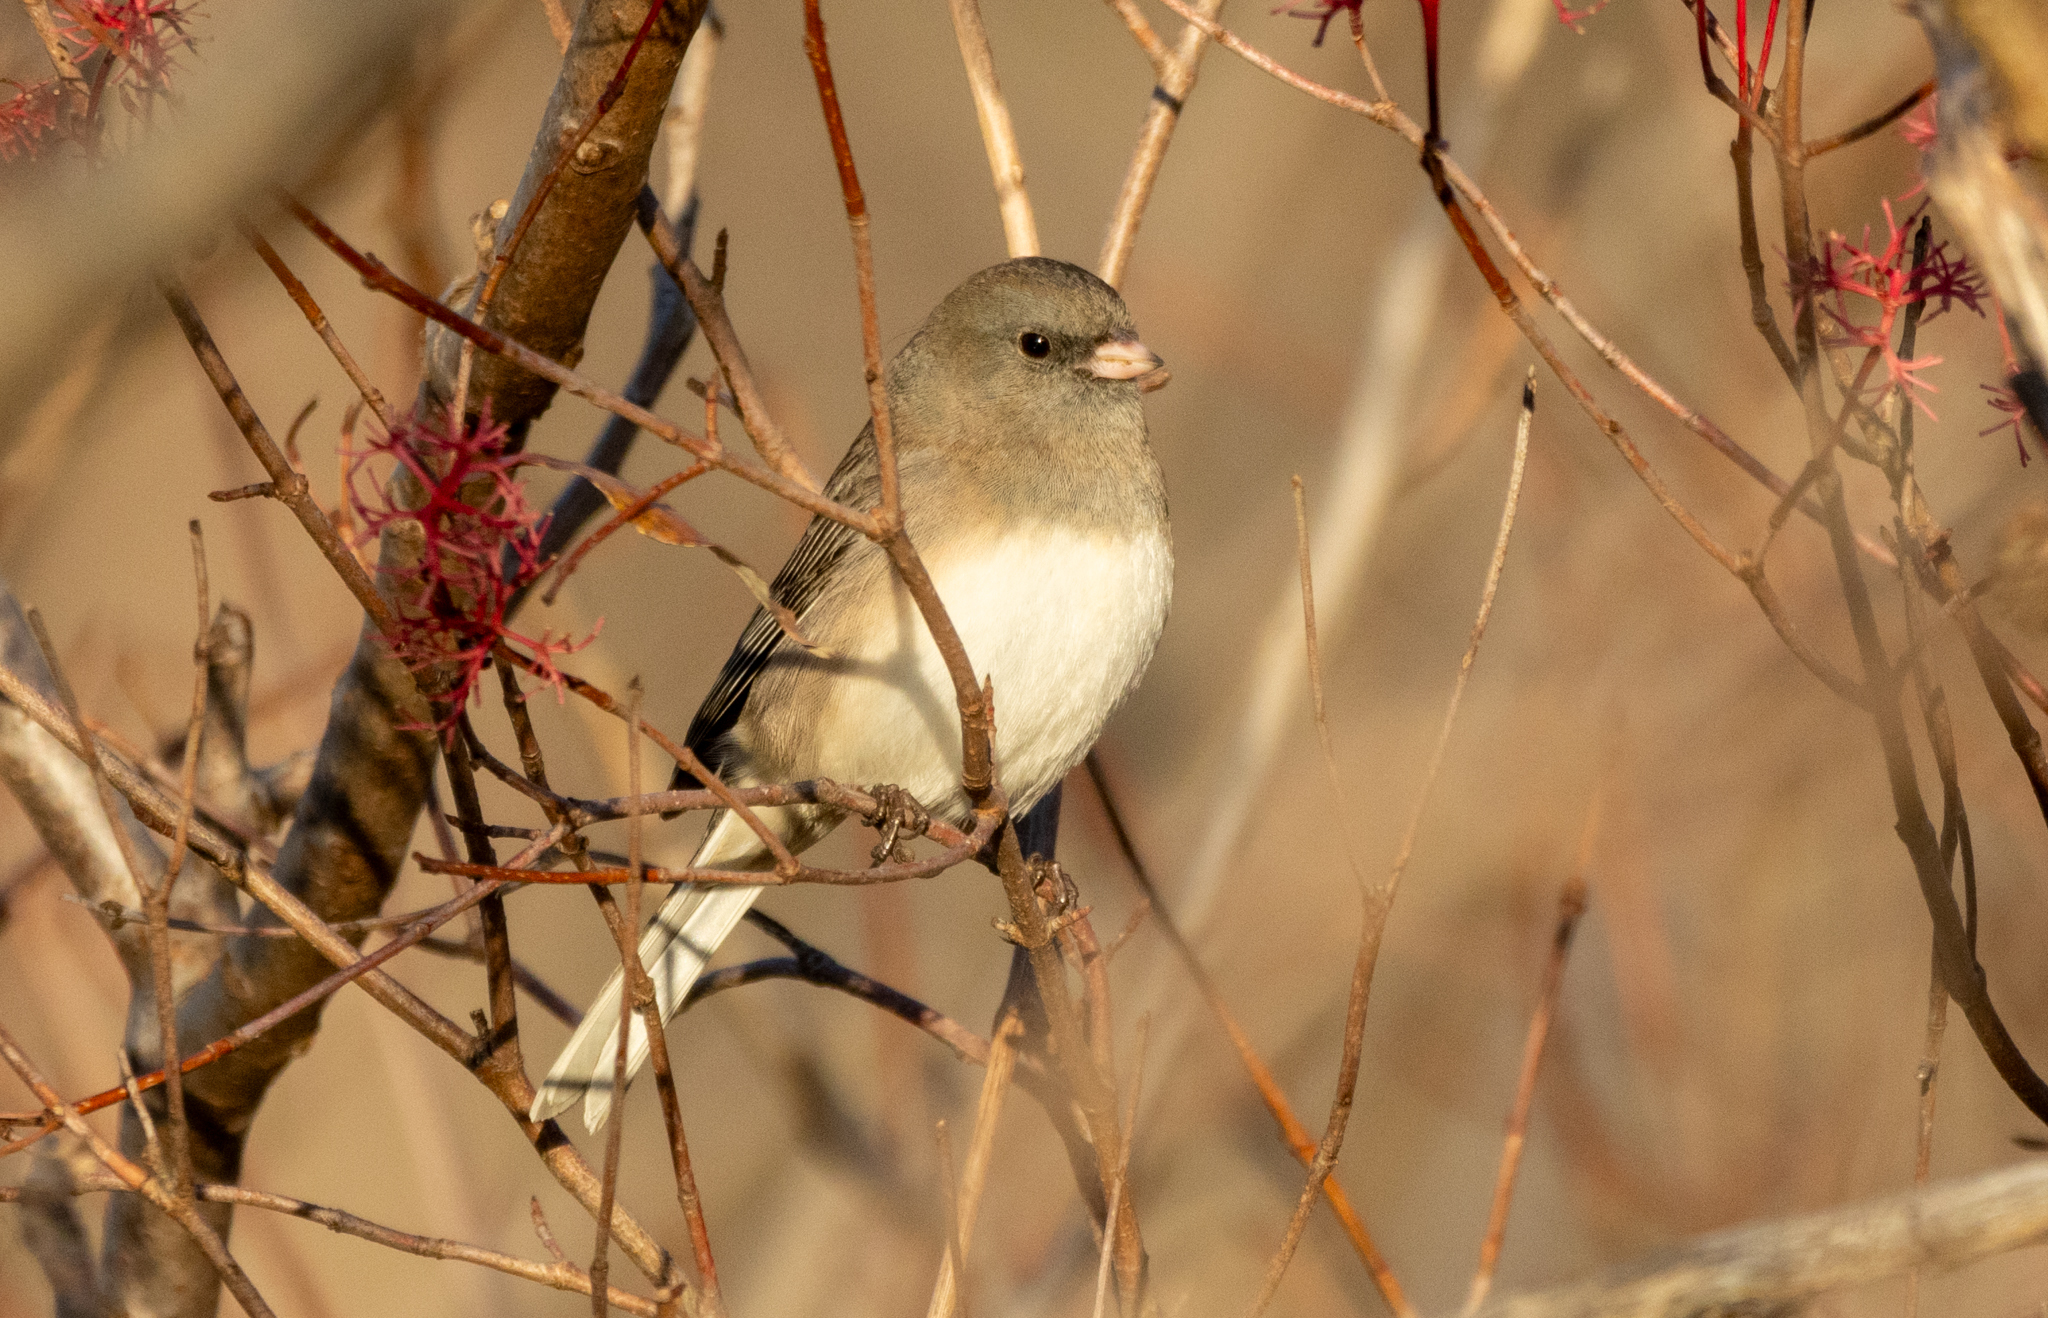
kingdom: Animalia
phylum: Chordata
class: Aves
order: Passeriformes
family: Passerellidae
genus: Junco
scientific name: Junco hyemalis
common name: Dark-eyed junco
